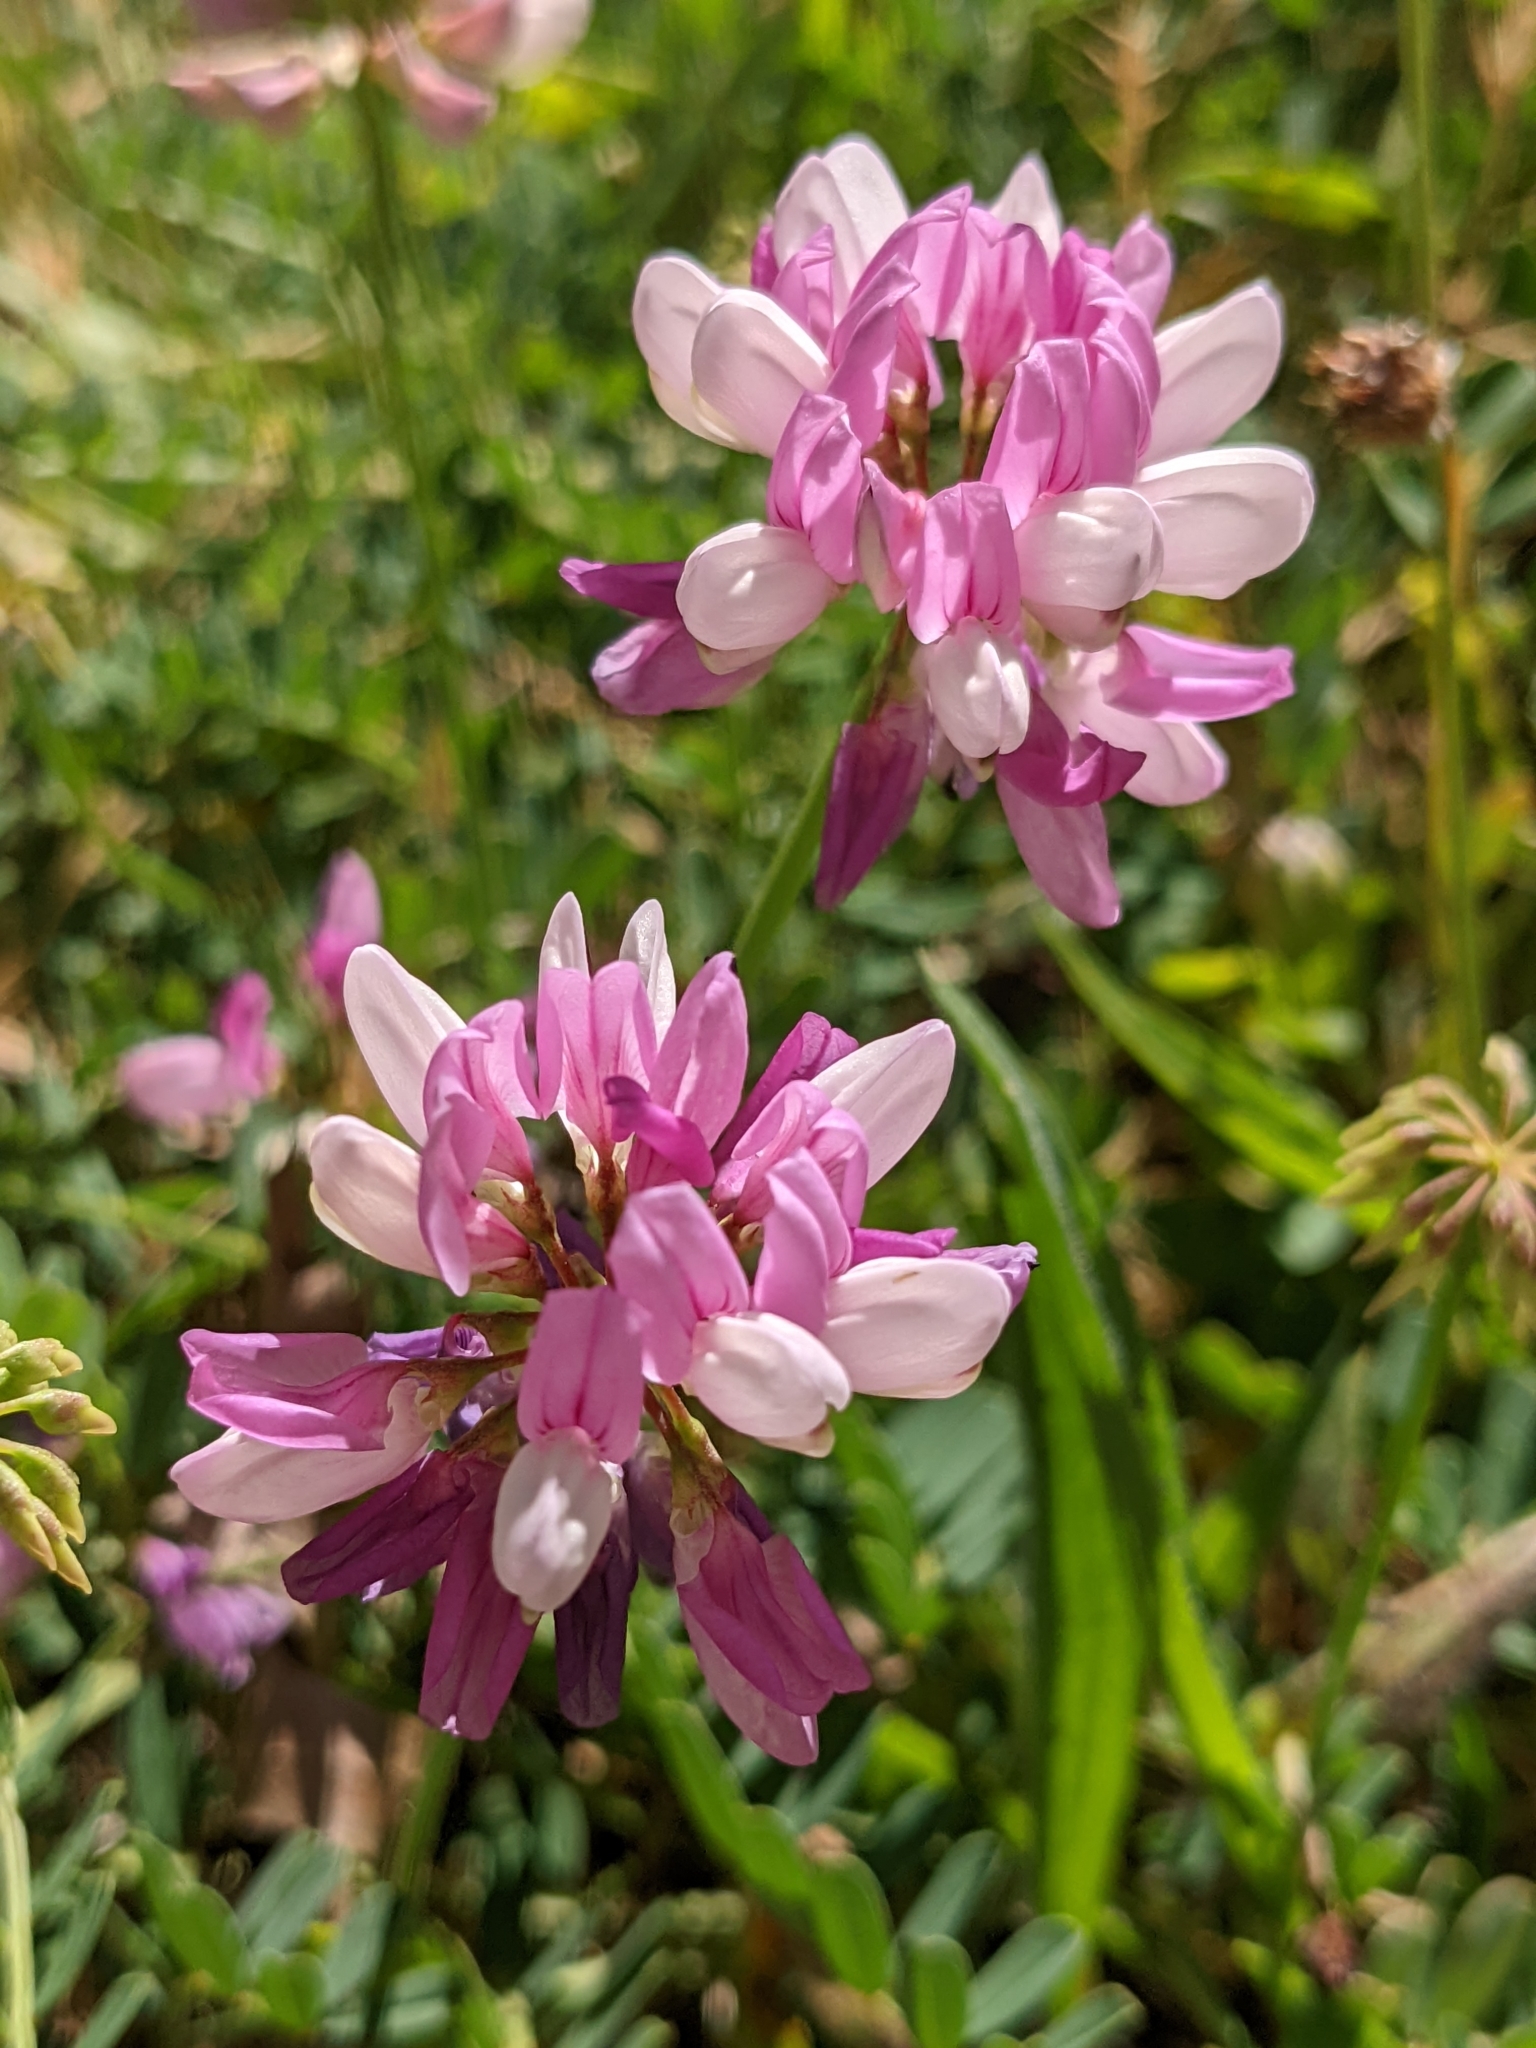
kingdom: Plantae
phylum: Tracheophyta
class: Magnoliopsida
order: Fabales
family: Fabaceae
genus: Coronilla
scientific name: Coronilla varia
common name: Crownvetch
